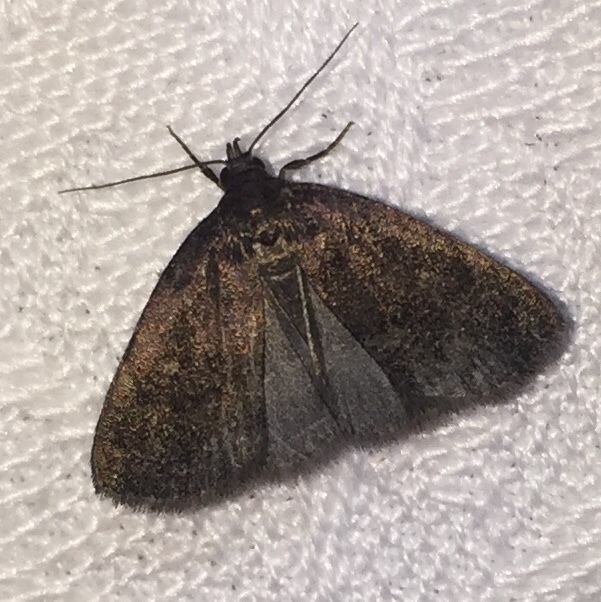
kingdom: Animalia
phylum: Arthropoda
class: Insecta
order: Lepidoptera
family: Erebidae
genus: Idia
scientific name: Idia rotundalis
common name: Rotund idia moth
